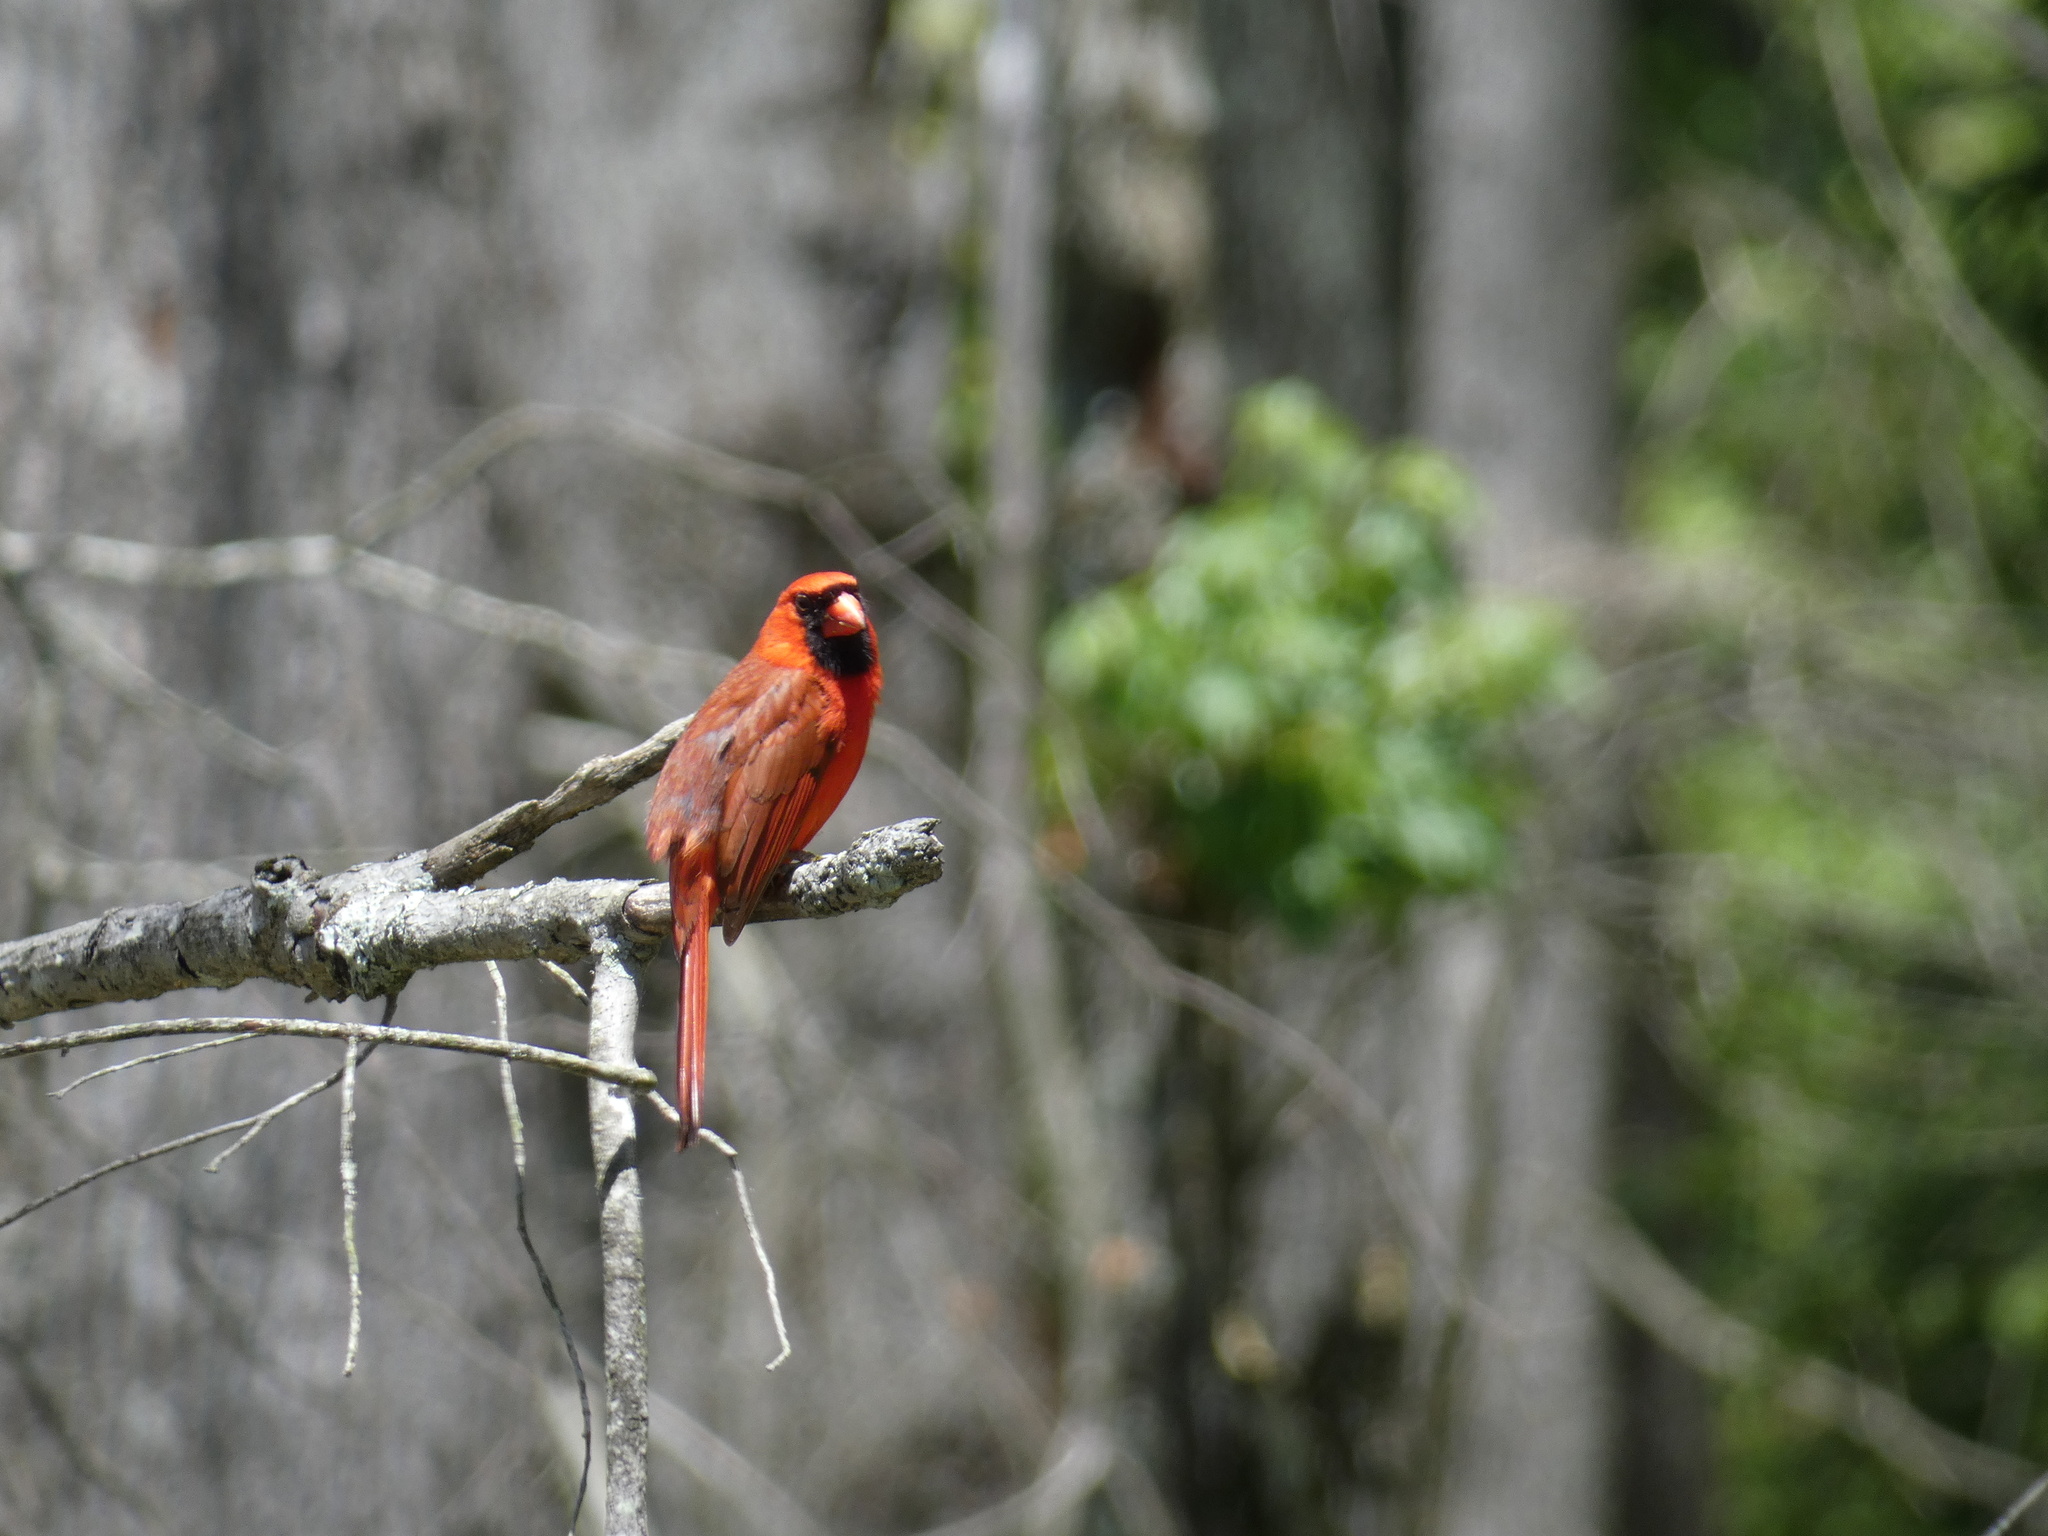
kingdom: Animalia
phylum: Chordata
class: Aves
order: Passeriformes
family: Cardinalidae
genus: Cardinalis
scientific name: Cardinalis cardinalis
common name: Northern cardinal
